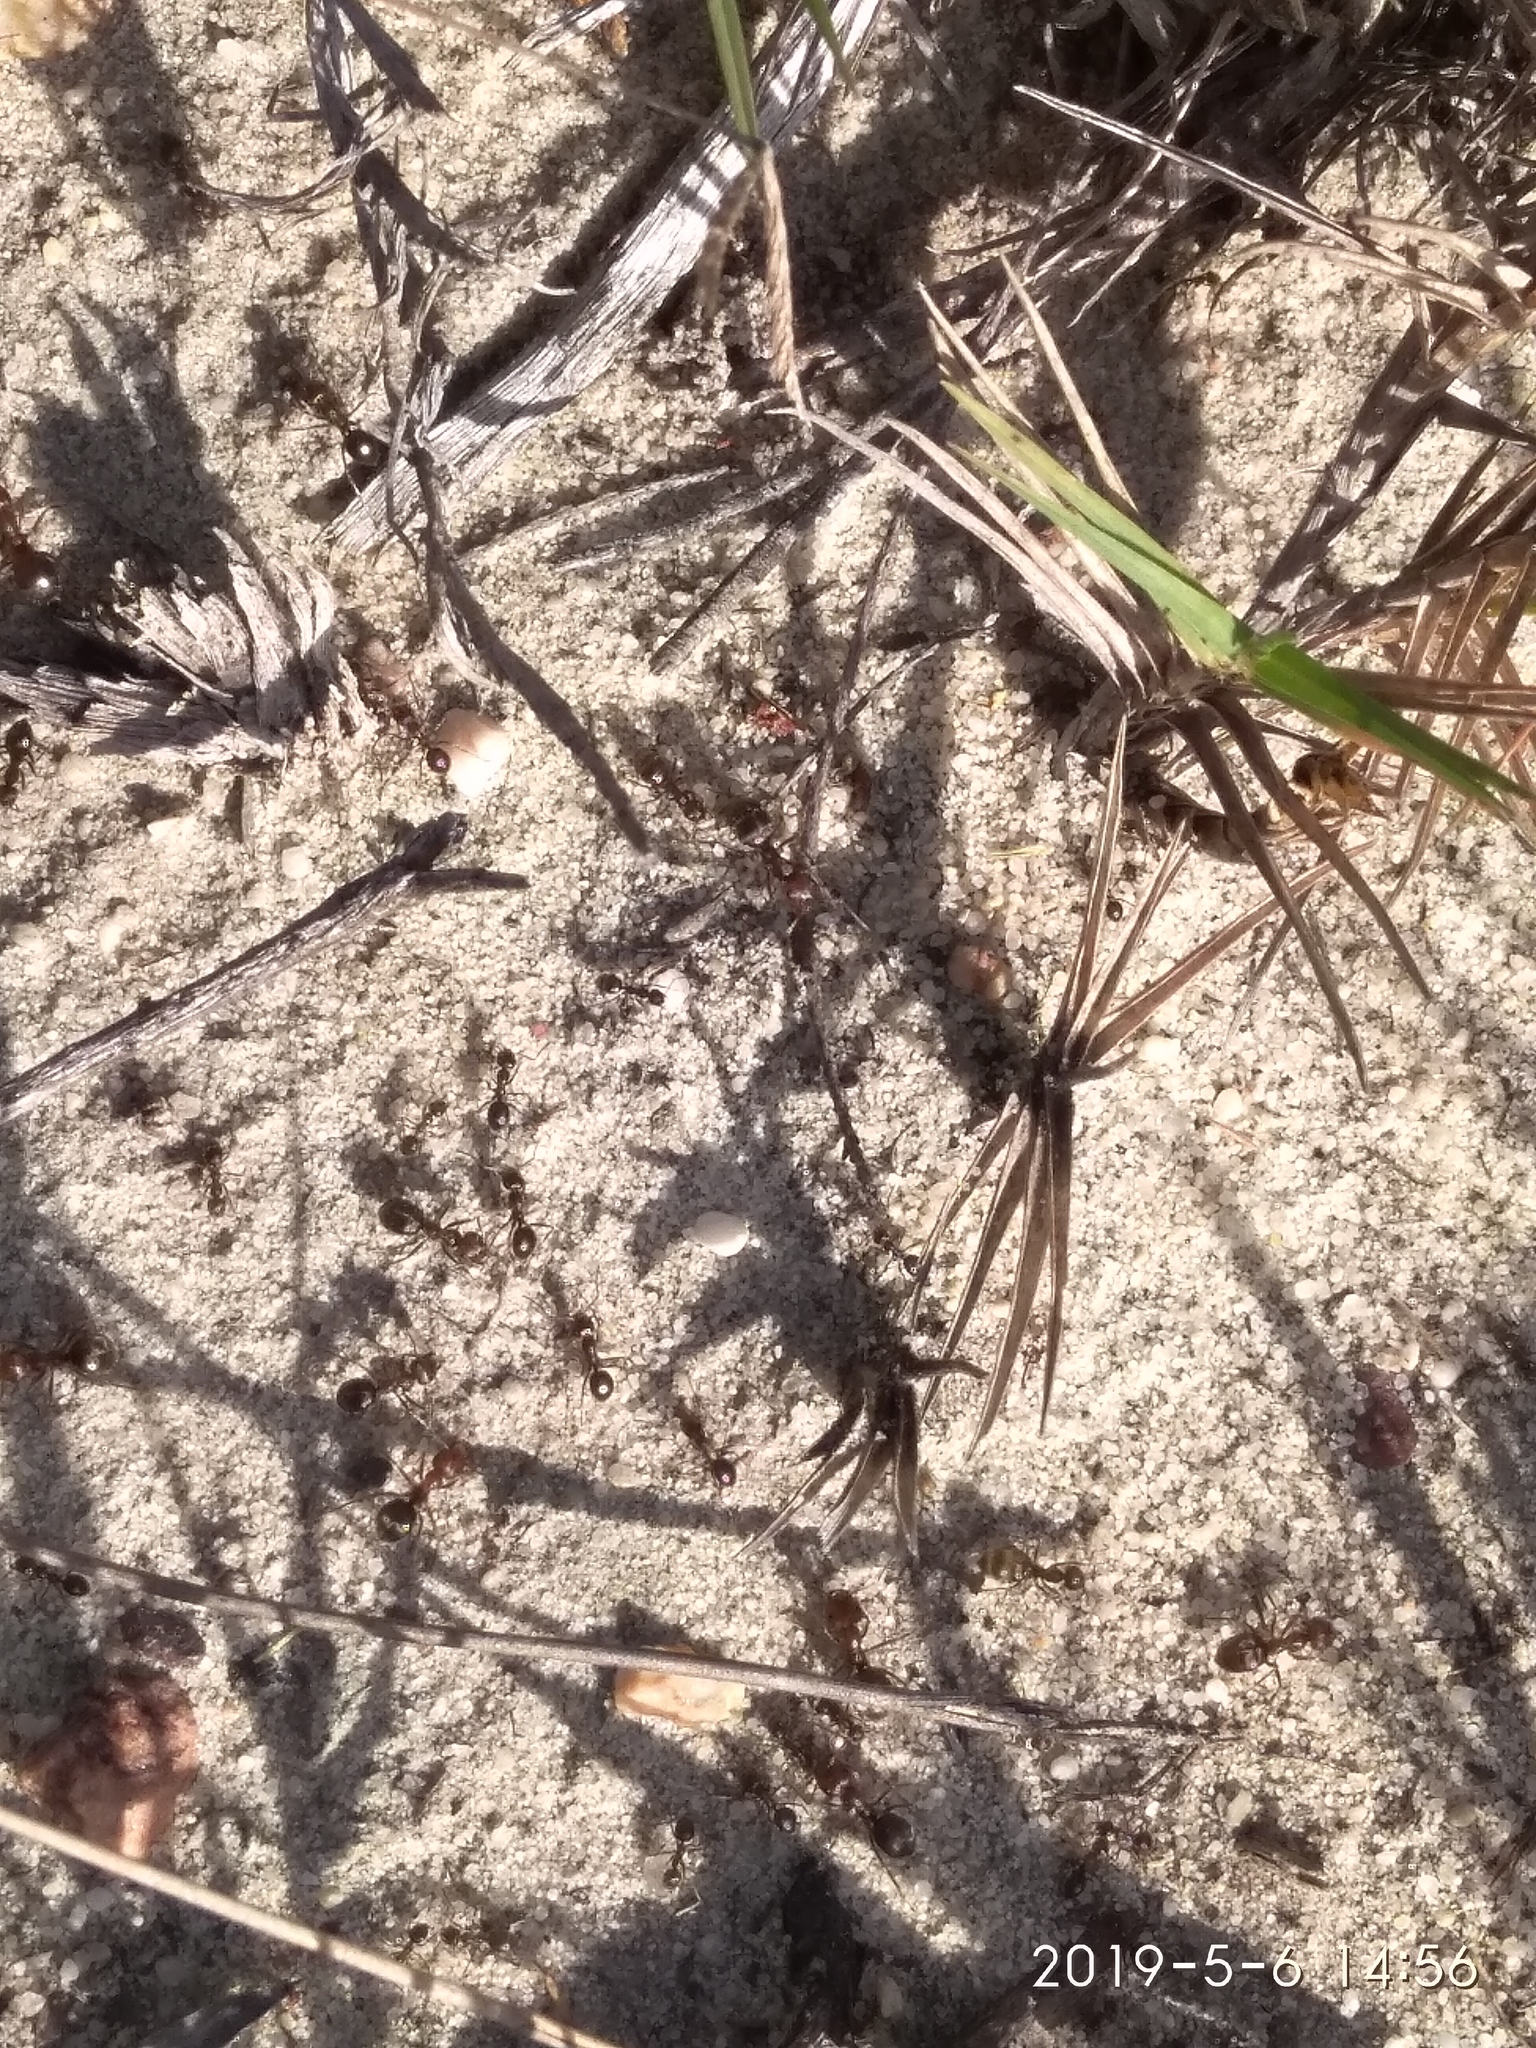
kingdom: Animalia
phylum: Arthropoda
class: Insecta
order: Hymenoptera
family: Formicidae
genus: Anoplolepis
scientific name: Anoplolepis steingroeveri
